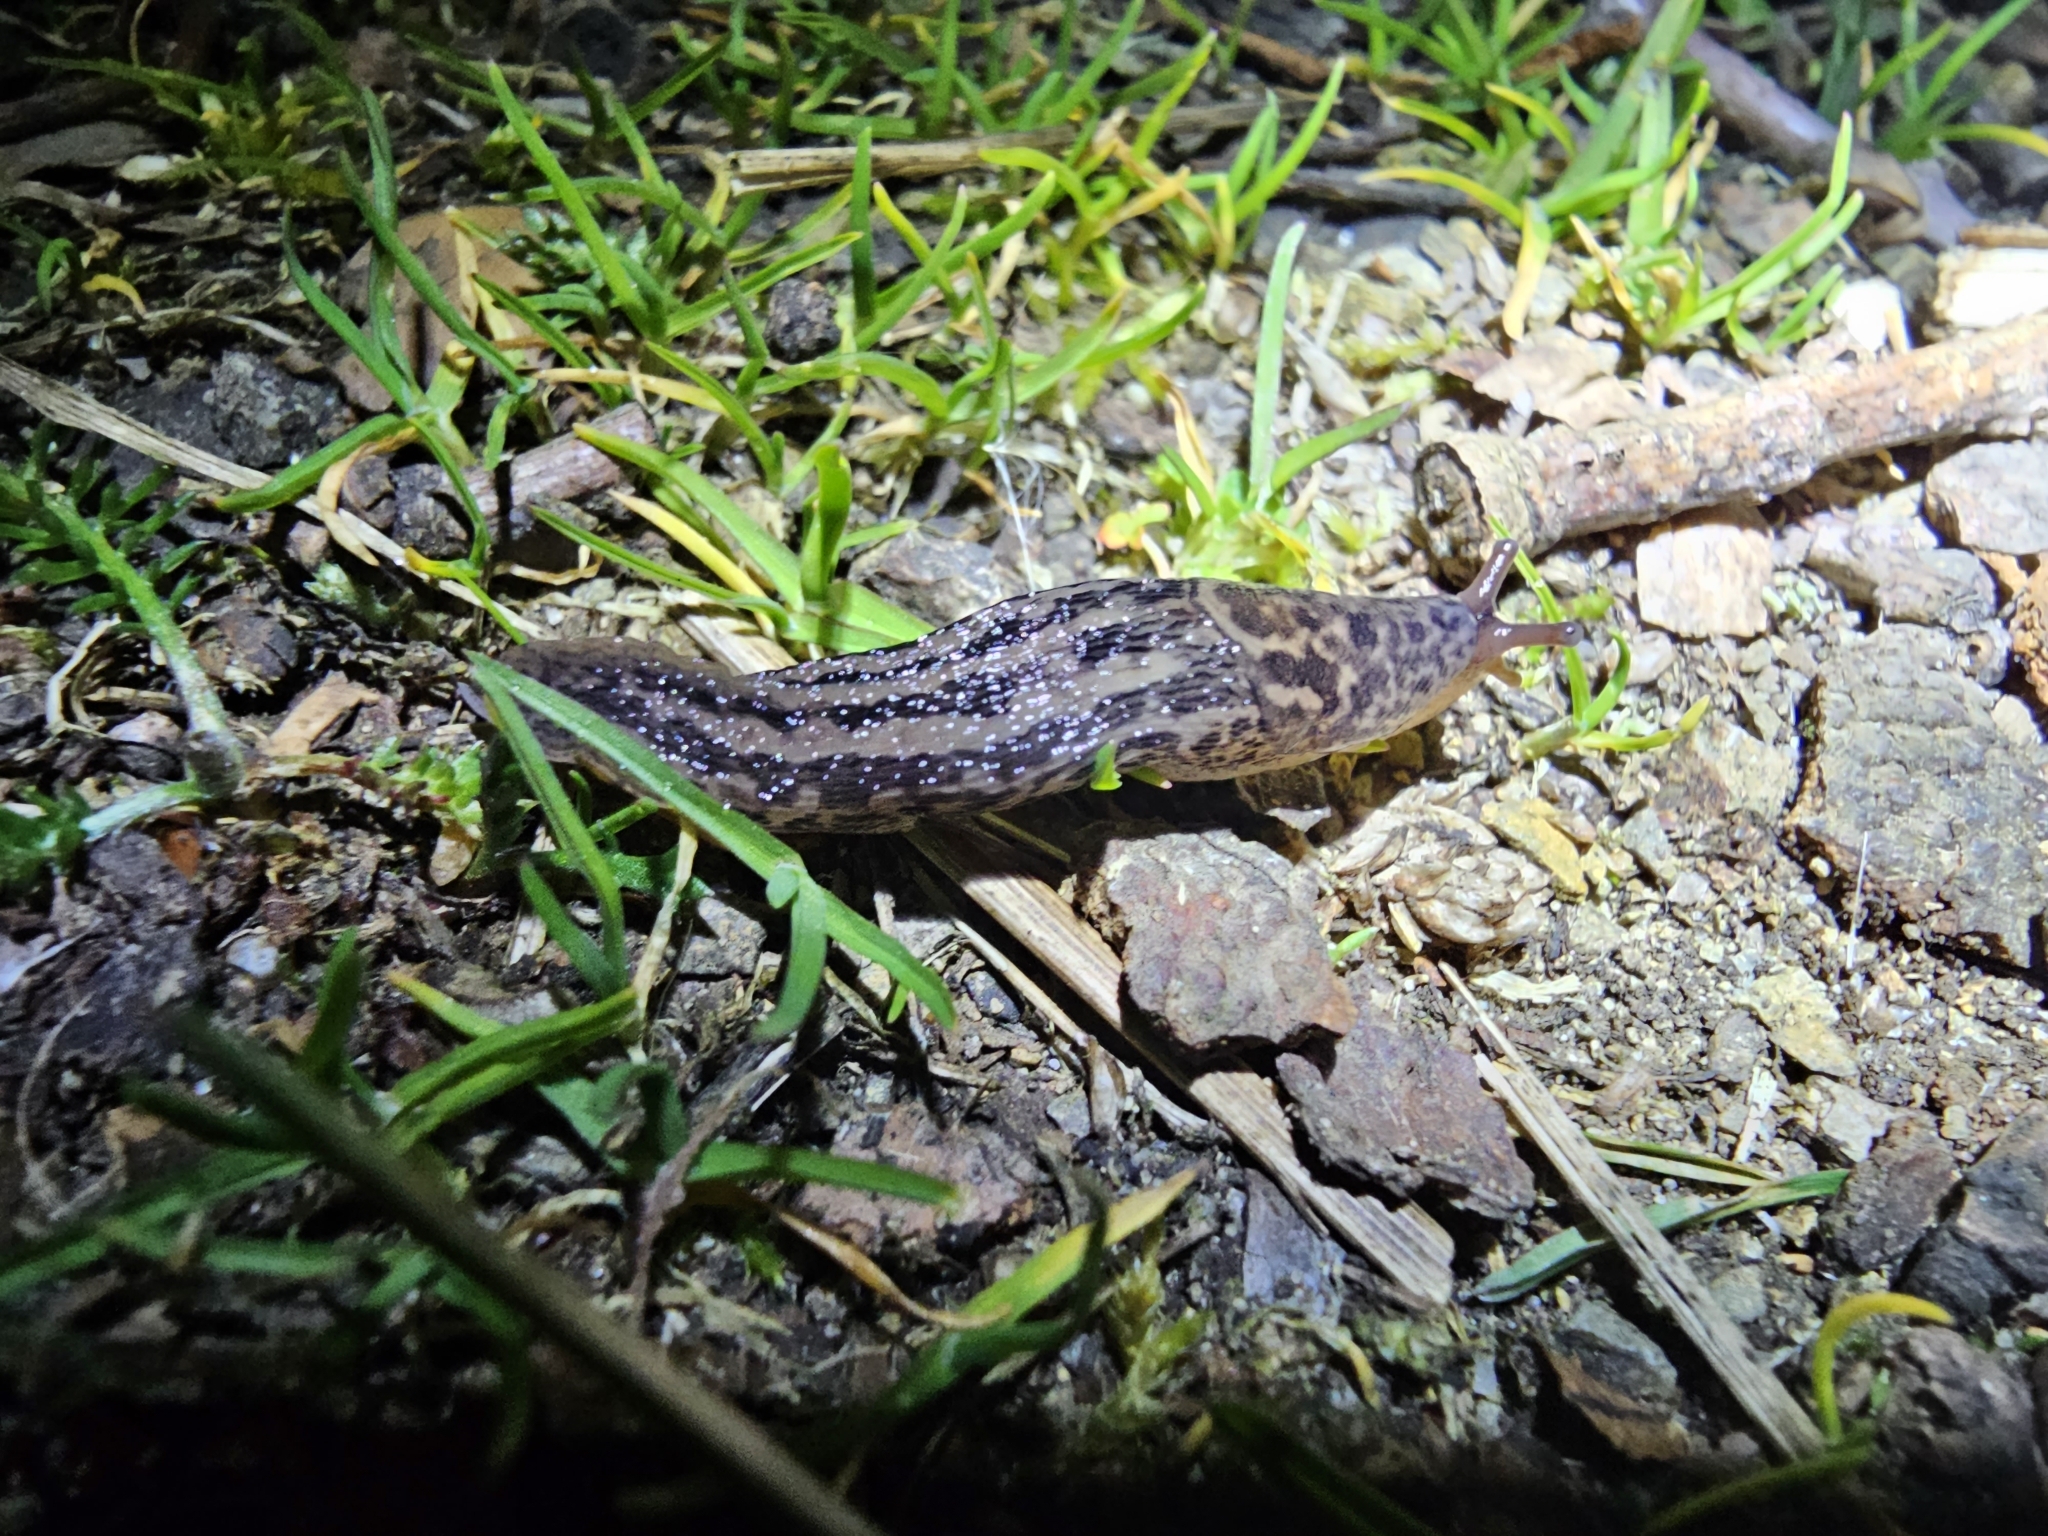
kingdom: Animalia
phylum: Mollusca
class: Gastropoda
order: Stylommatophora
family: Limacidae
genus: Limax
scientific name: Limax maximus
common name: Great grey slug
